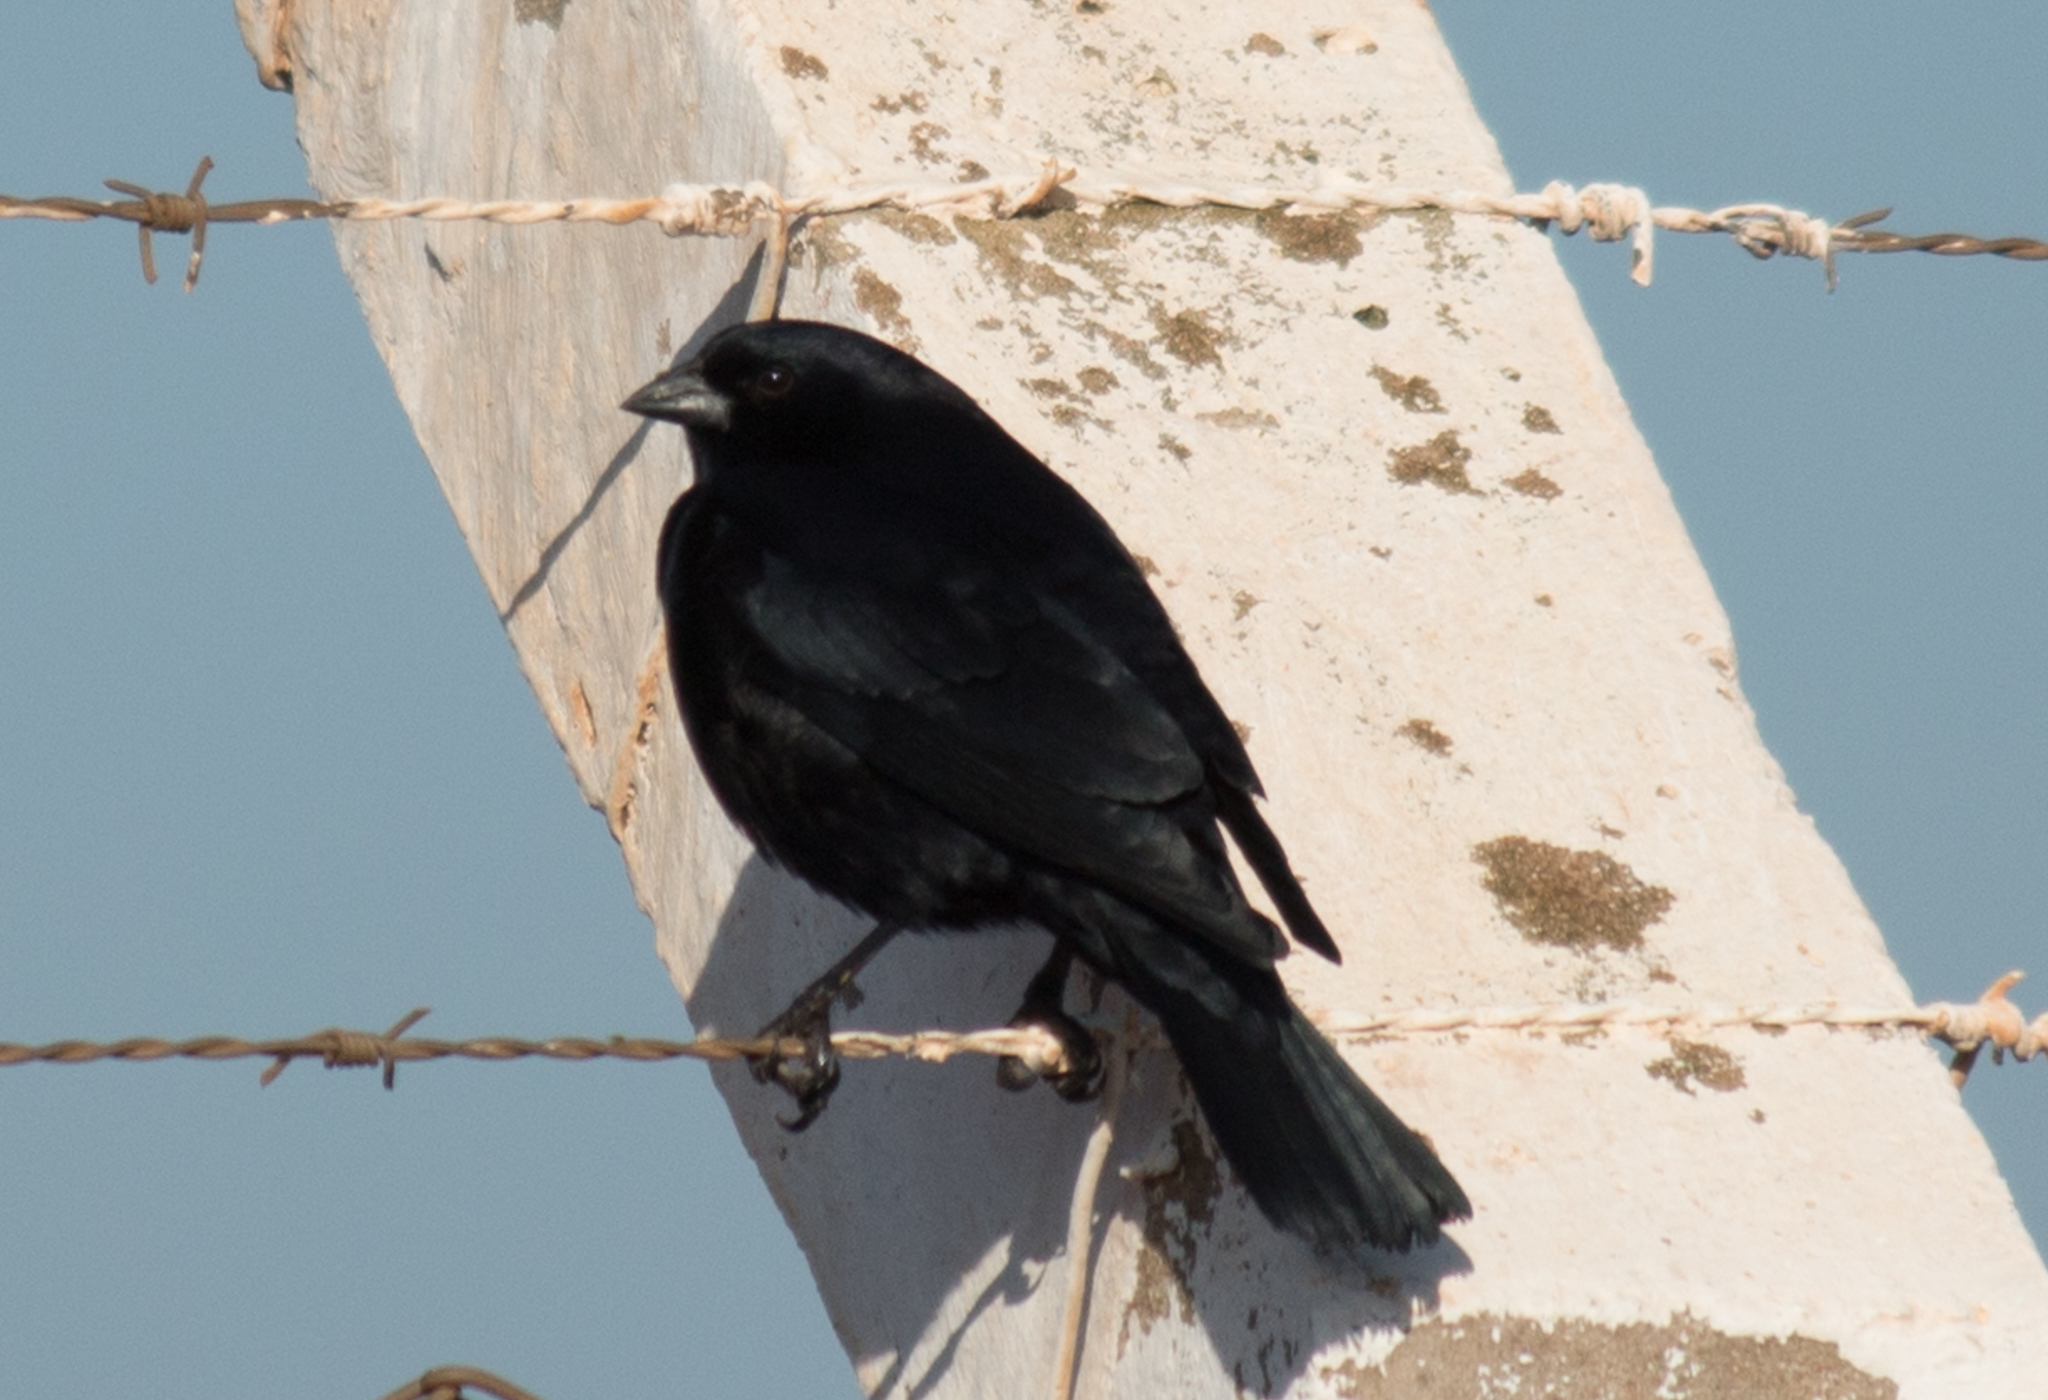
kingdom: Animalia
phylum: Chordata
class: Aves
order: Passeriformes
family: Icteridae
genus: Molothrus
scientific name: Molothrus rufoaxillaris
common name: Screaming cowbird
